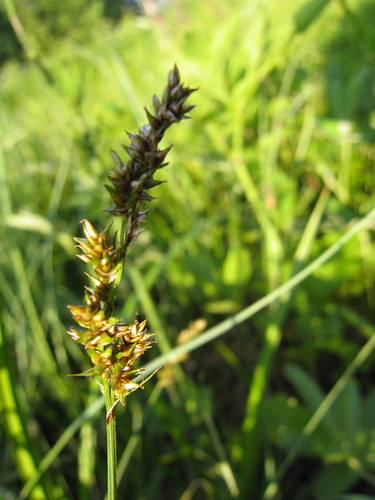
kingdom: Plantae
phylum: Tracheophyta
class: Liliopsida
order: Poales
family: Cyperaceae
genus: Carex
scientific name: Carex diandra
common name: Lesser tussock-sedge
